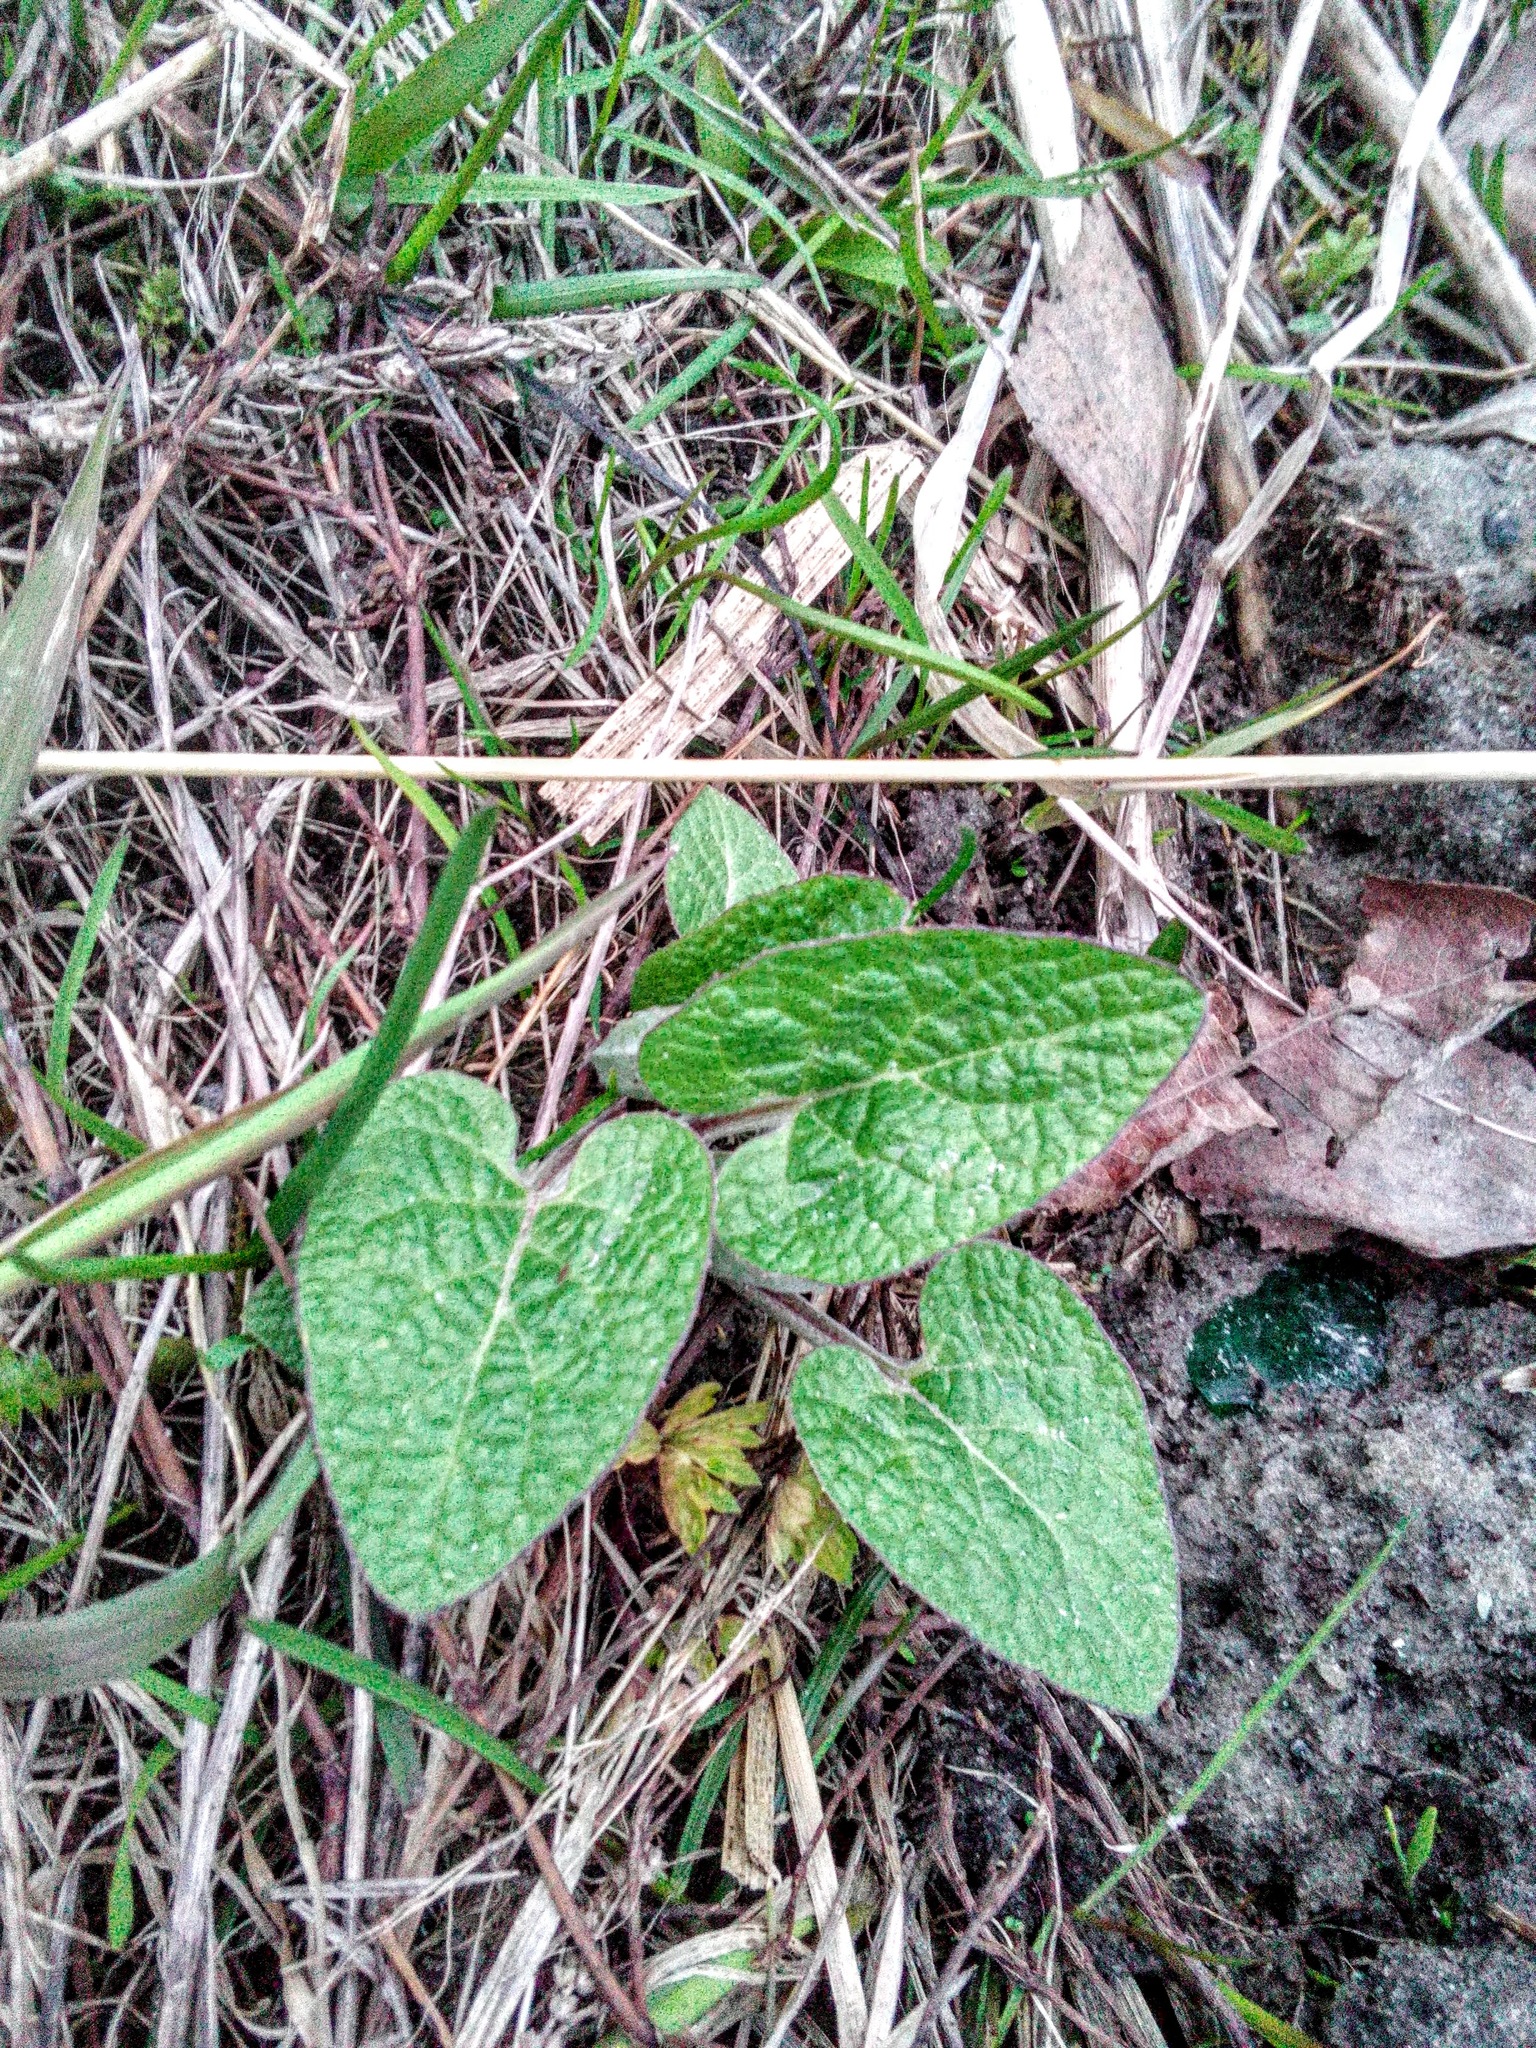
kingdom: Plantae
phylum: Tracheophyta
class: Magnoliopsida
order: Asterales
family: Asteraceae
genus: Arctium
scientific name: Arctium tomentosum
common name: Woolly burdock
